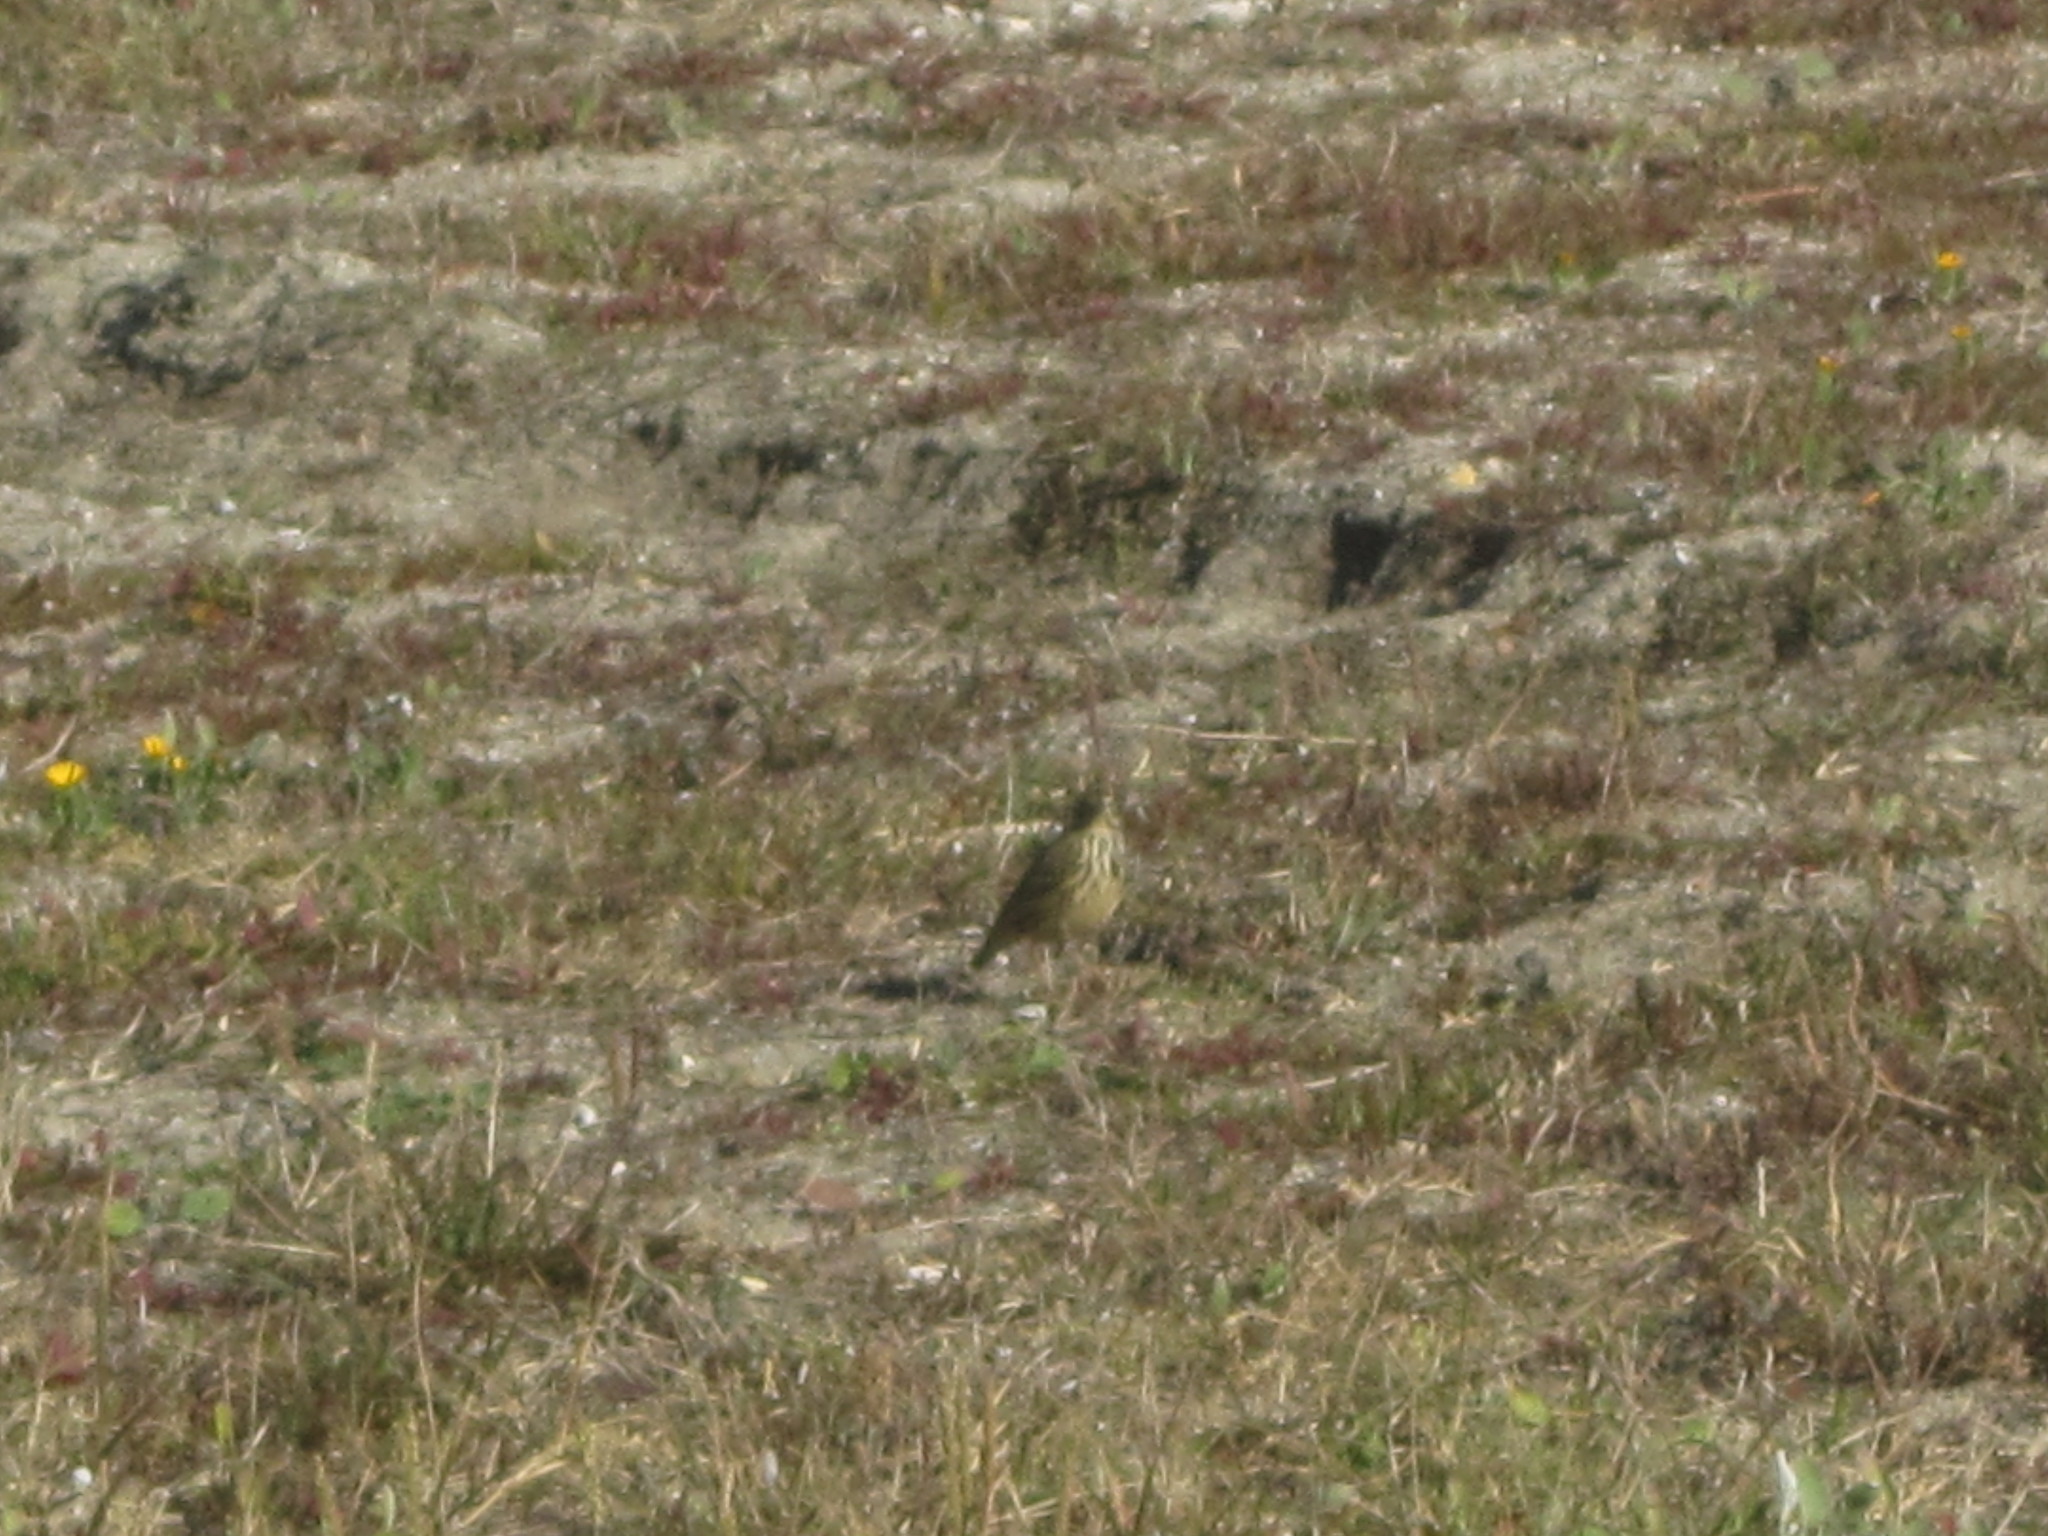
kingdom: Animalia
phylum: Chordata
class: Aves
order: Passeriformes
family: Motacillidae
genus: Anthus
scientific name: Anthus pratensis
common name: Meadow pipit
